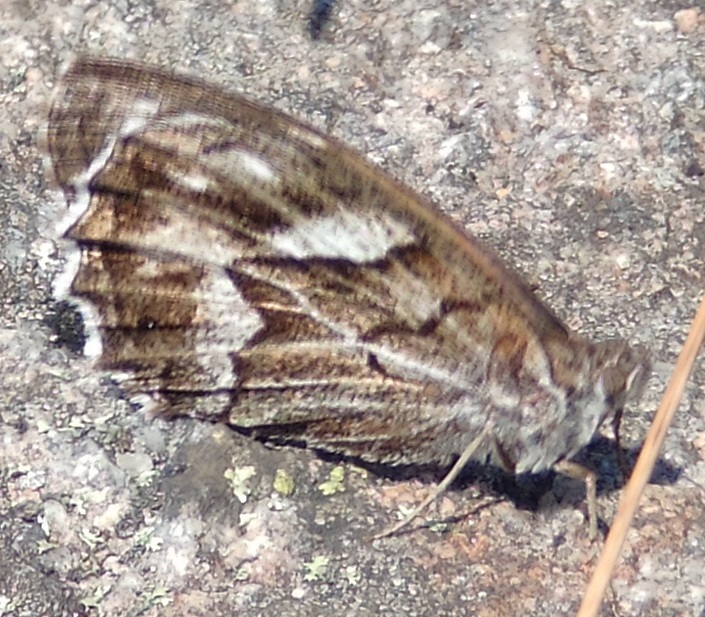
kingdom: Animalia
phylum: Arthropoda
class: Insecta
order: Lepidoptera
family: Nymphalidae
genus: Hipparchia
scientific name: Hipparchia fidia
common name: Striped grayling
